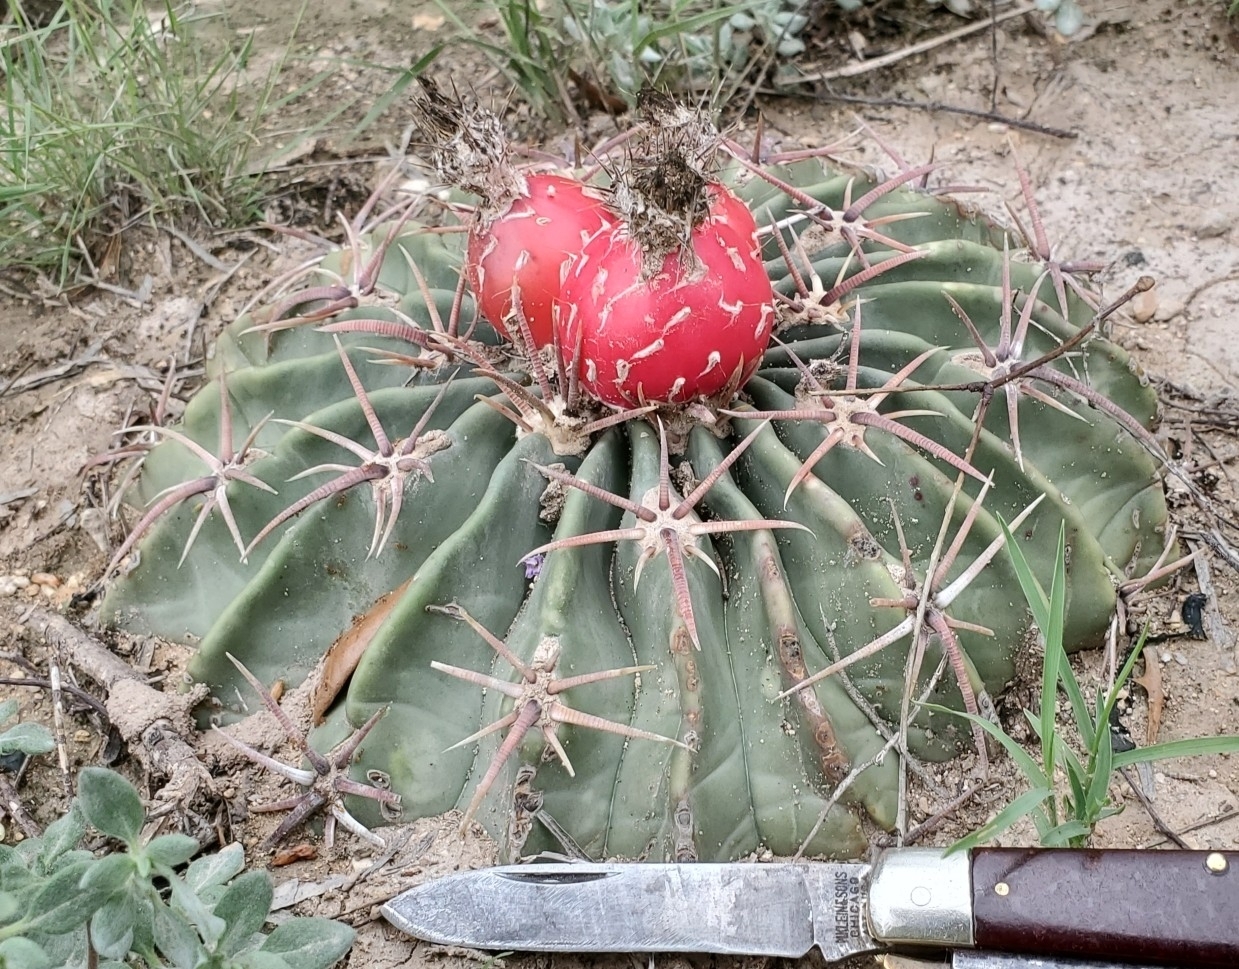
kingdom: Plantae
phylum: Tracheophyta
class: Magnoliopsida
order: Caryophyllales
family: Cactaceae
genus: Echinocactus
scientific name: Echinocactus texensis
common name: Devil's pincushion
